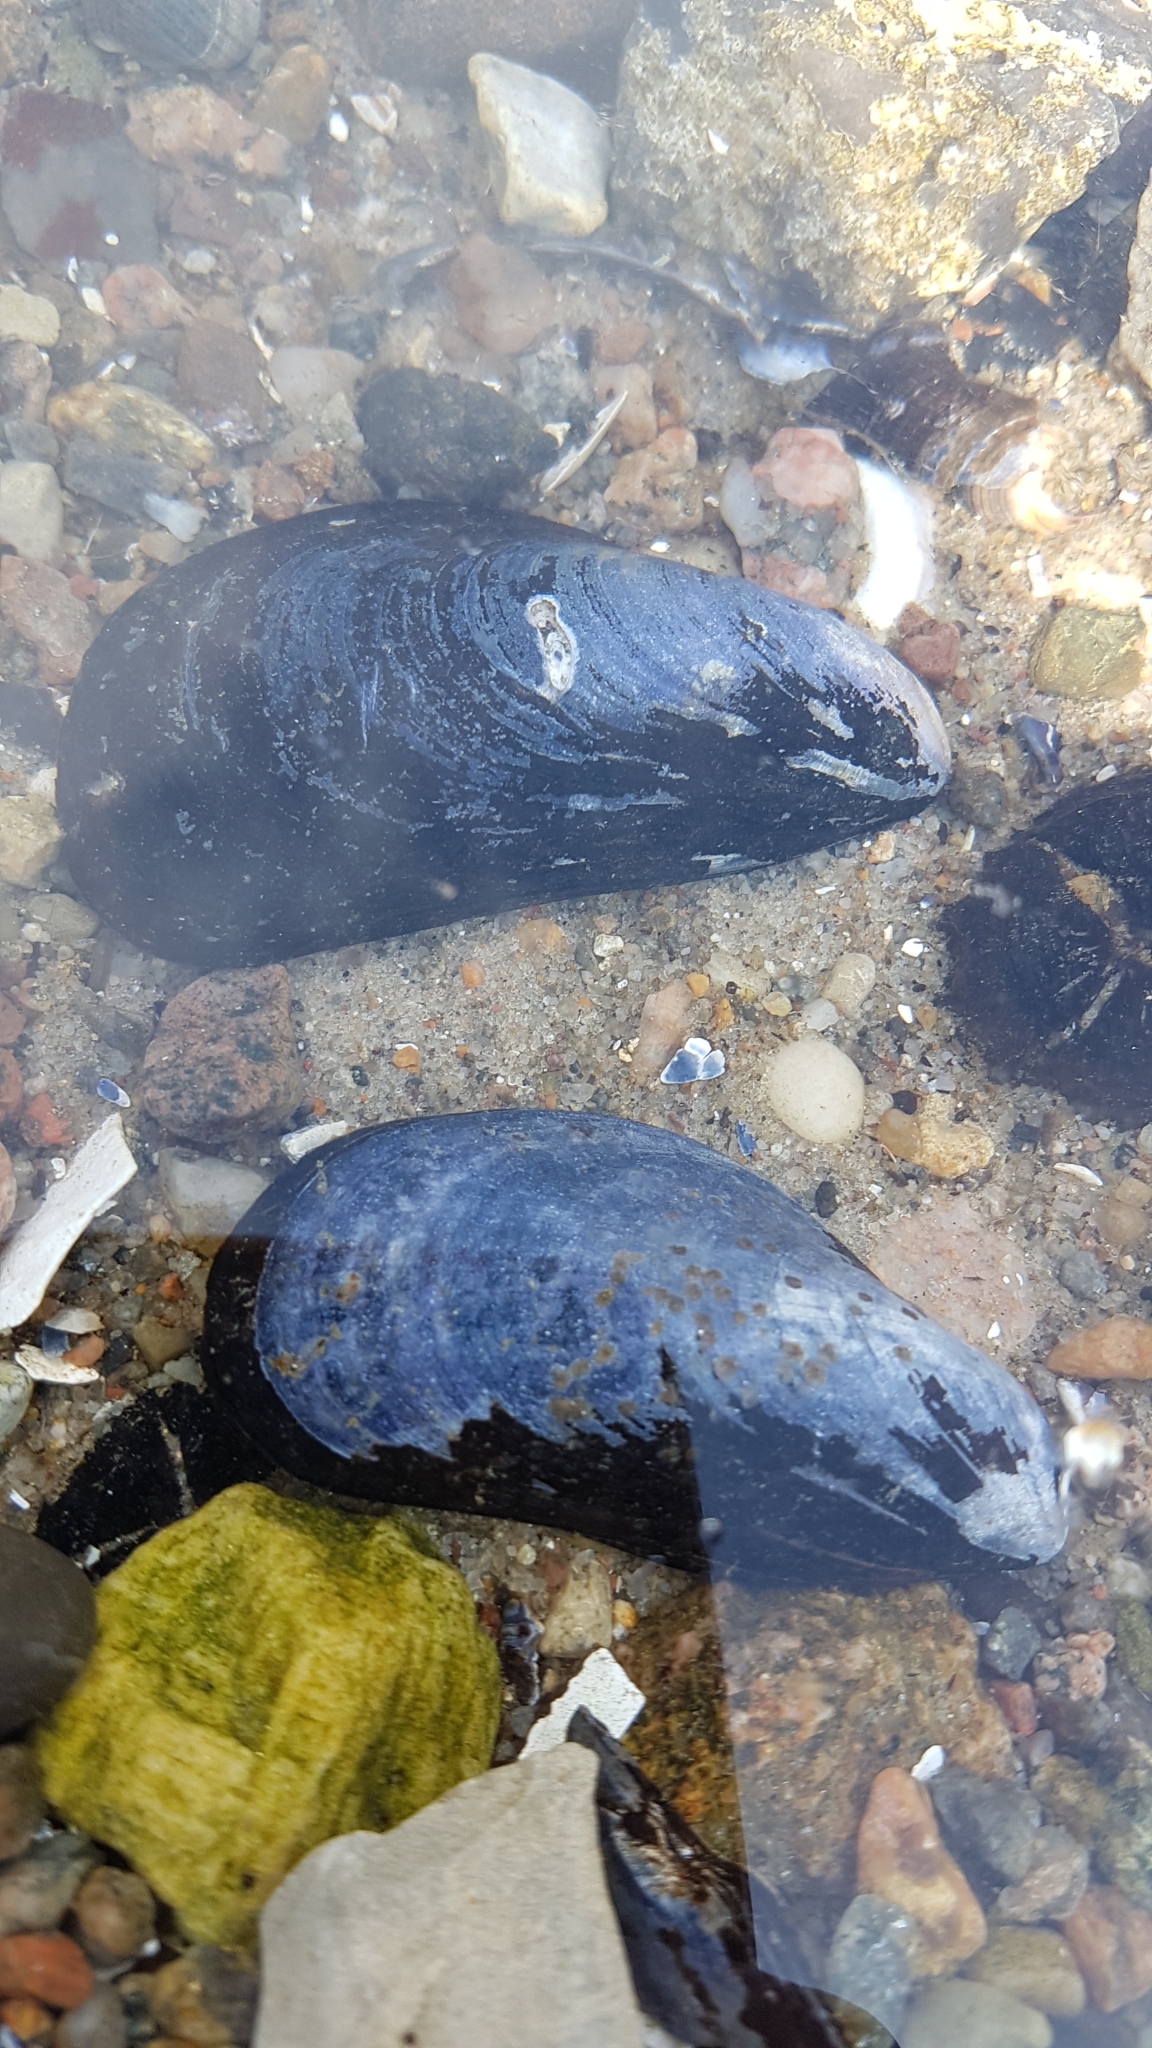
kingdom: Animalia
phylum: Mollusca
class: Bivalvia
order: Mytilida
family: Mytilidae
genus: Mytilus
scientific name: Mytilus edulis
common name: Blue mussel
